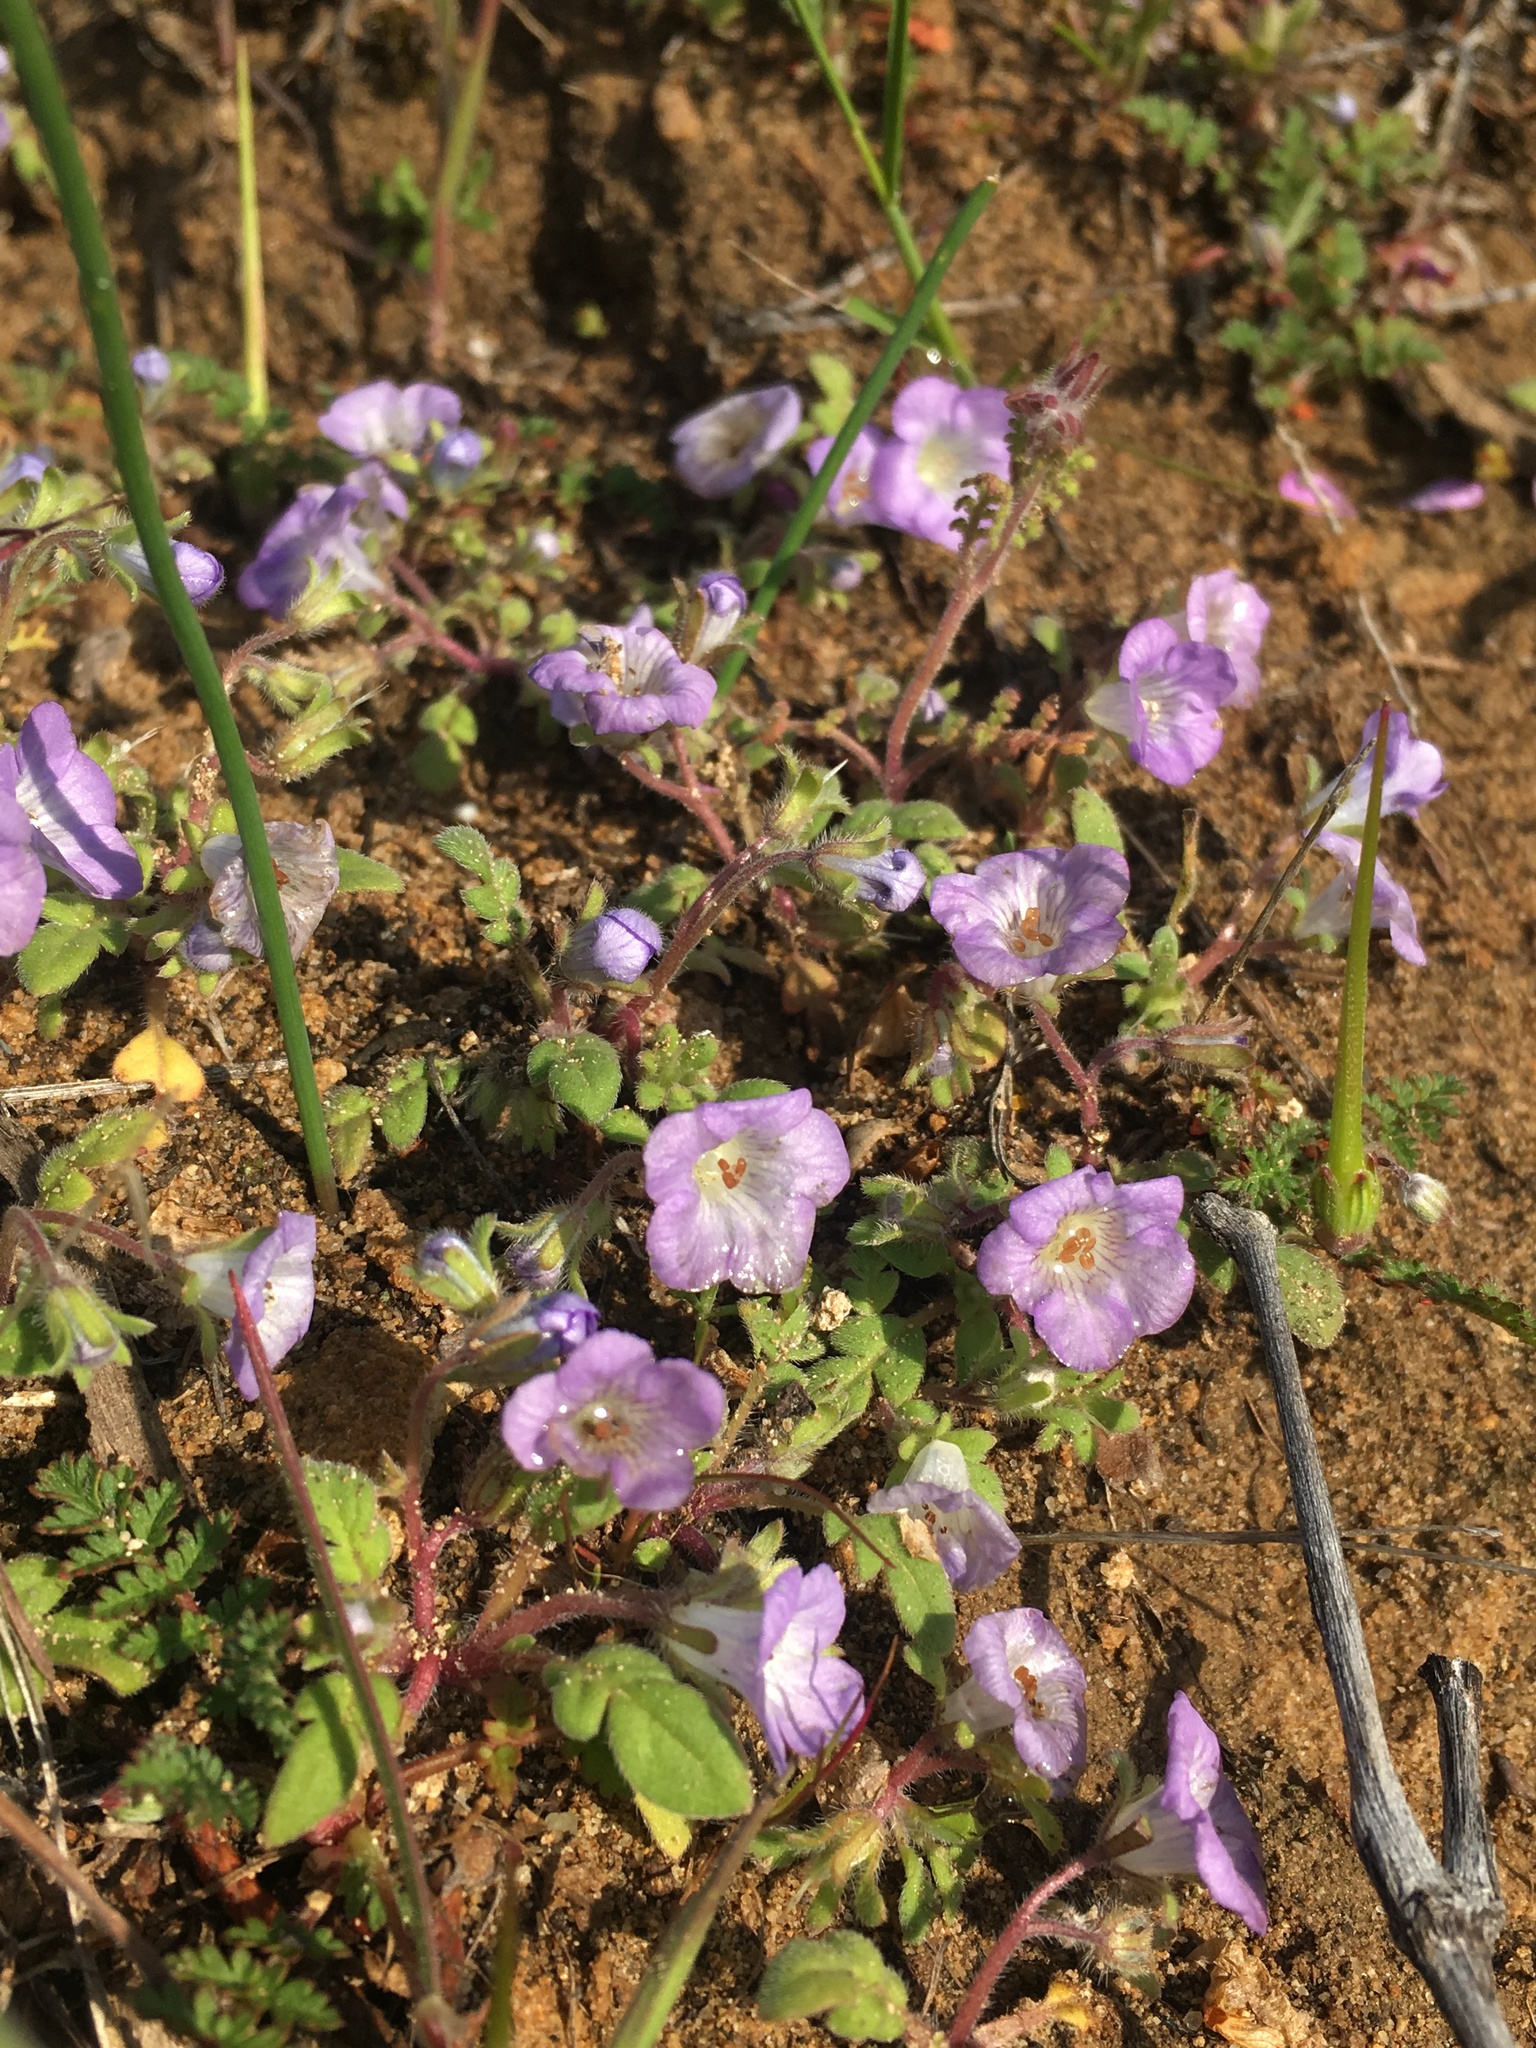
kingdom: Plantae
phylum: Tracheophyta
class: Magnoliopsida
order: Boraginales
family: Hydrophyllaceae
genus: Phacelia
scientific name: Phacelia douglasii
